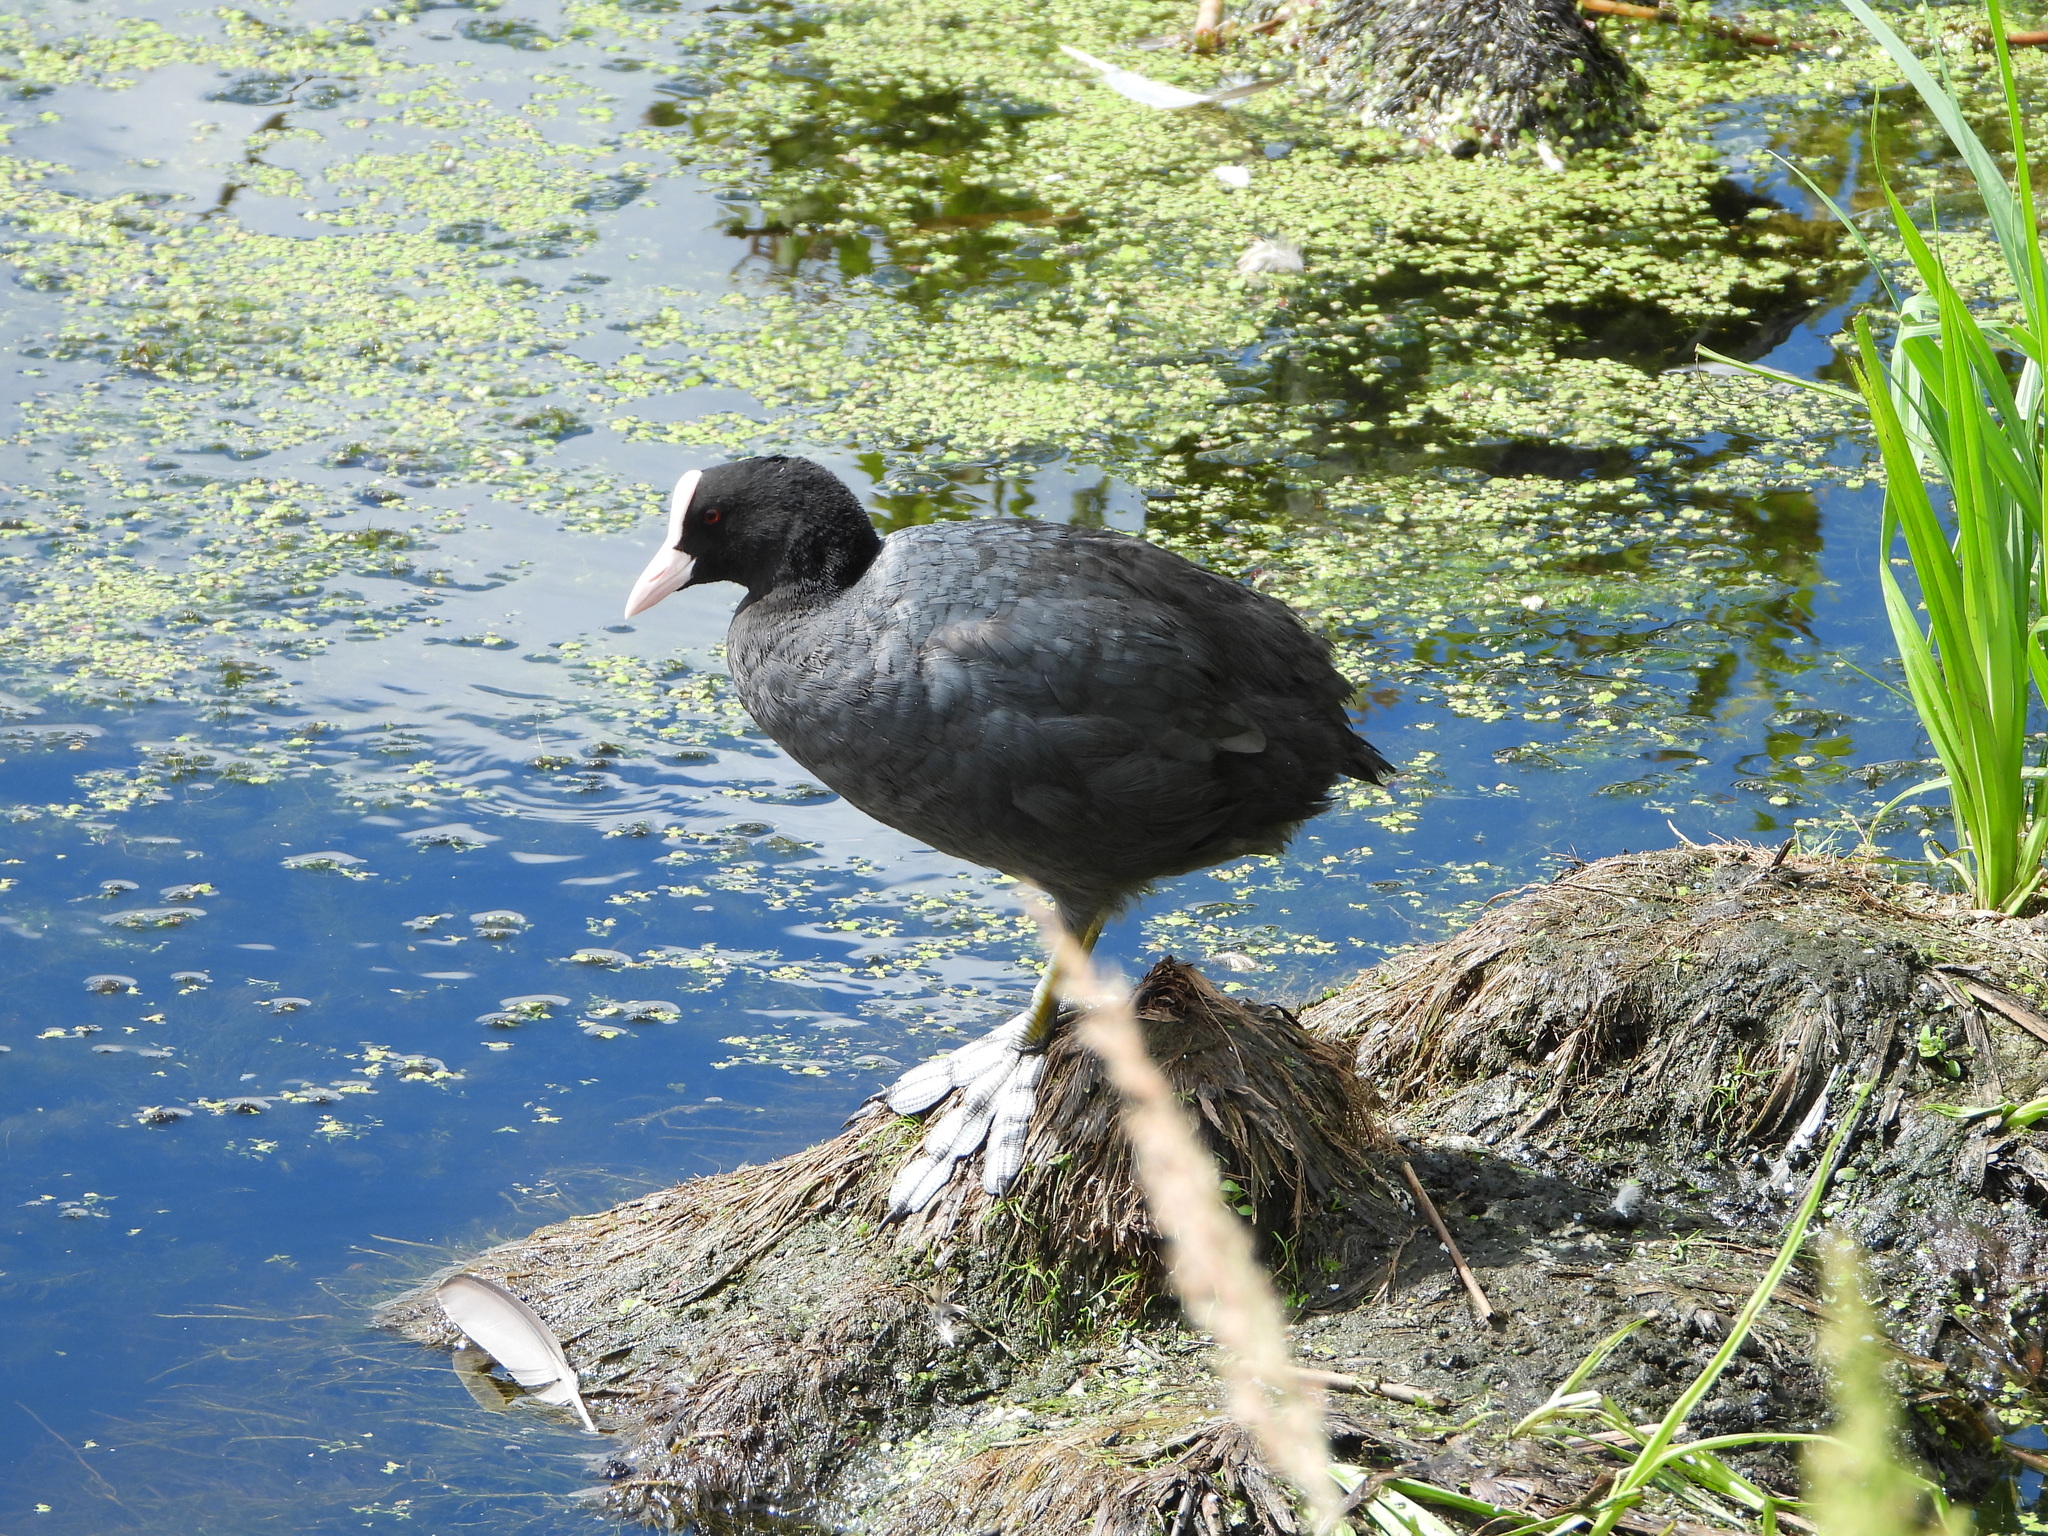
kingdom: Animalia
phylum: Chordata
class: Aves
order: Gruiformes
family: Rallidae
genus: Fulica
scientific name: Fulica atra
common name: Eurasian coot
